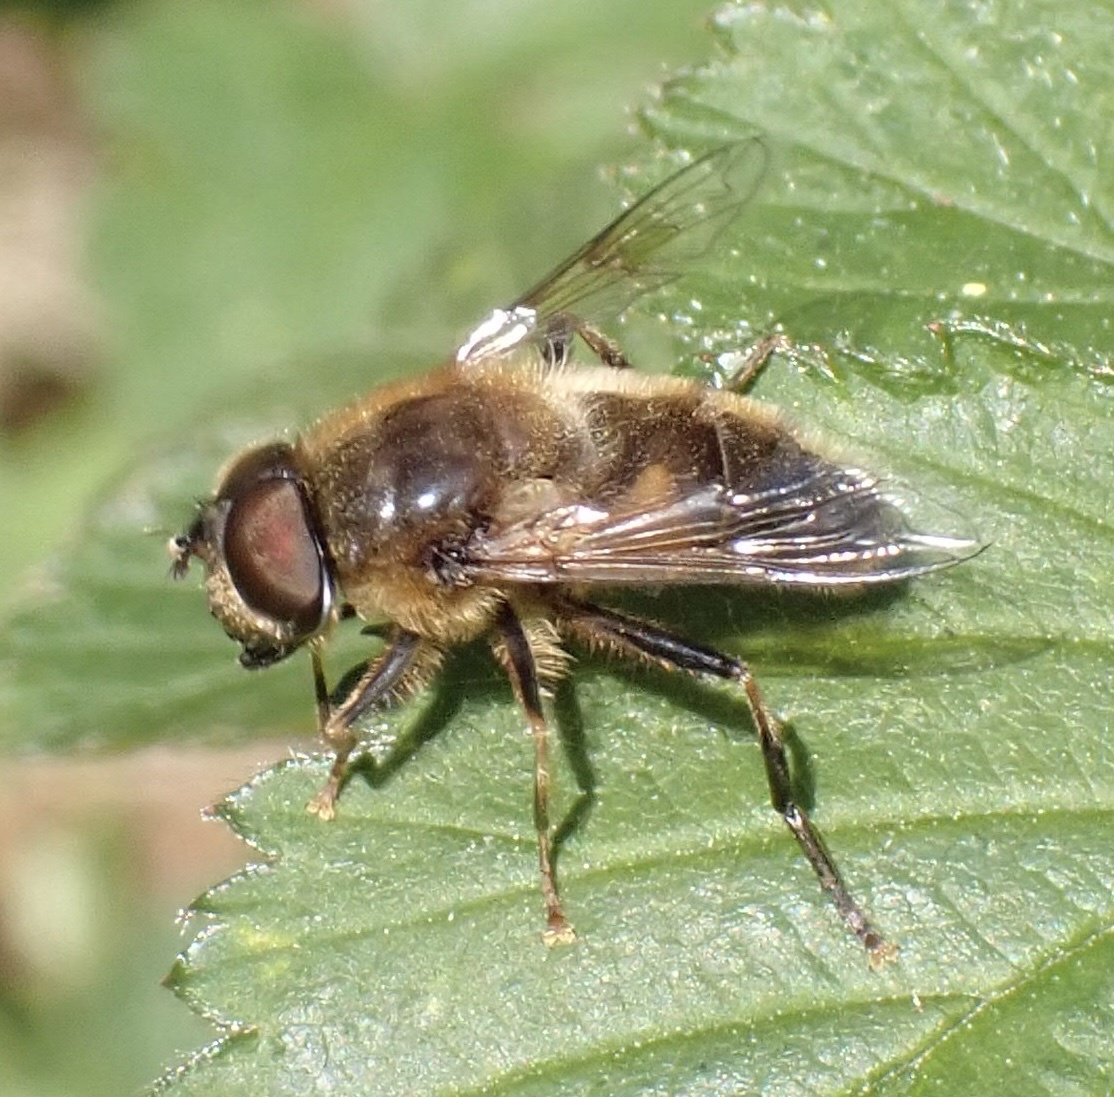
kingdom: Animalia
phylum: Arthropoda
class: Insecta
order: Diptera
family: Syrphidae
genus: Eristalis
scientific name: Eristalis pertinax
